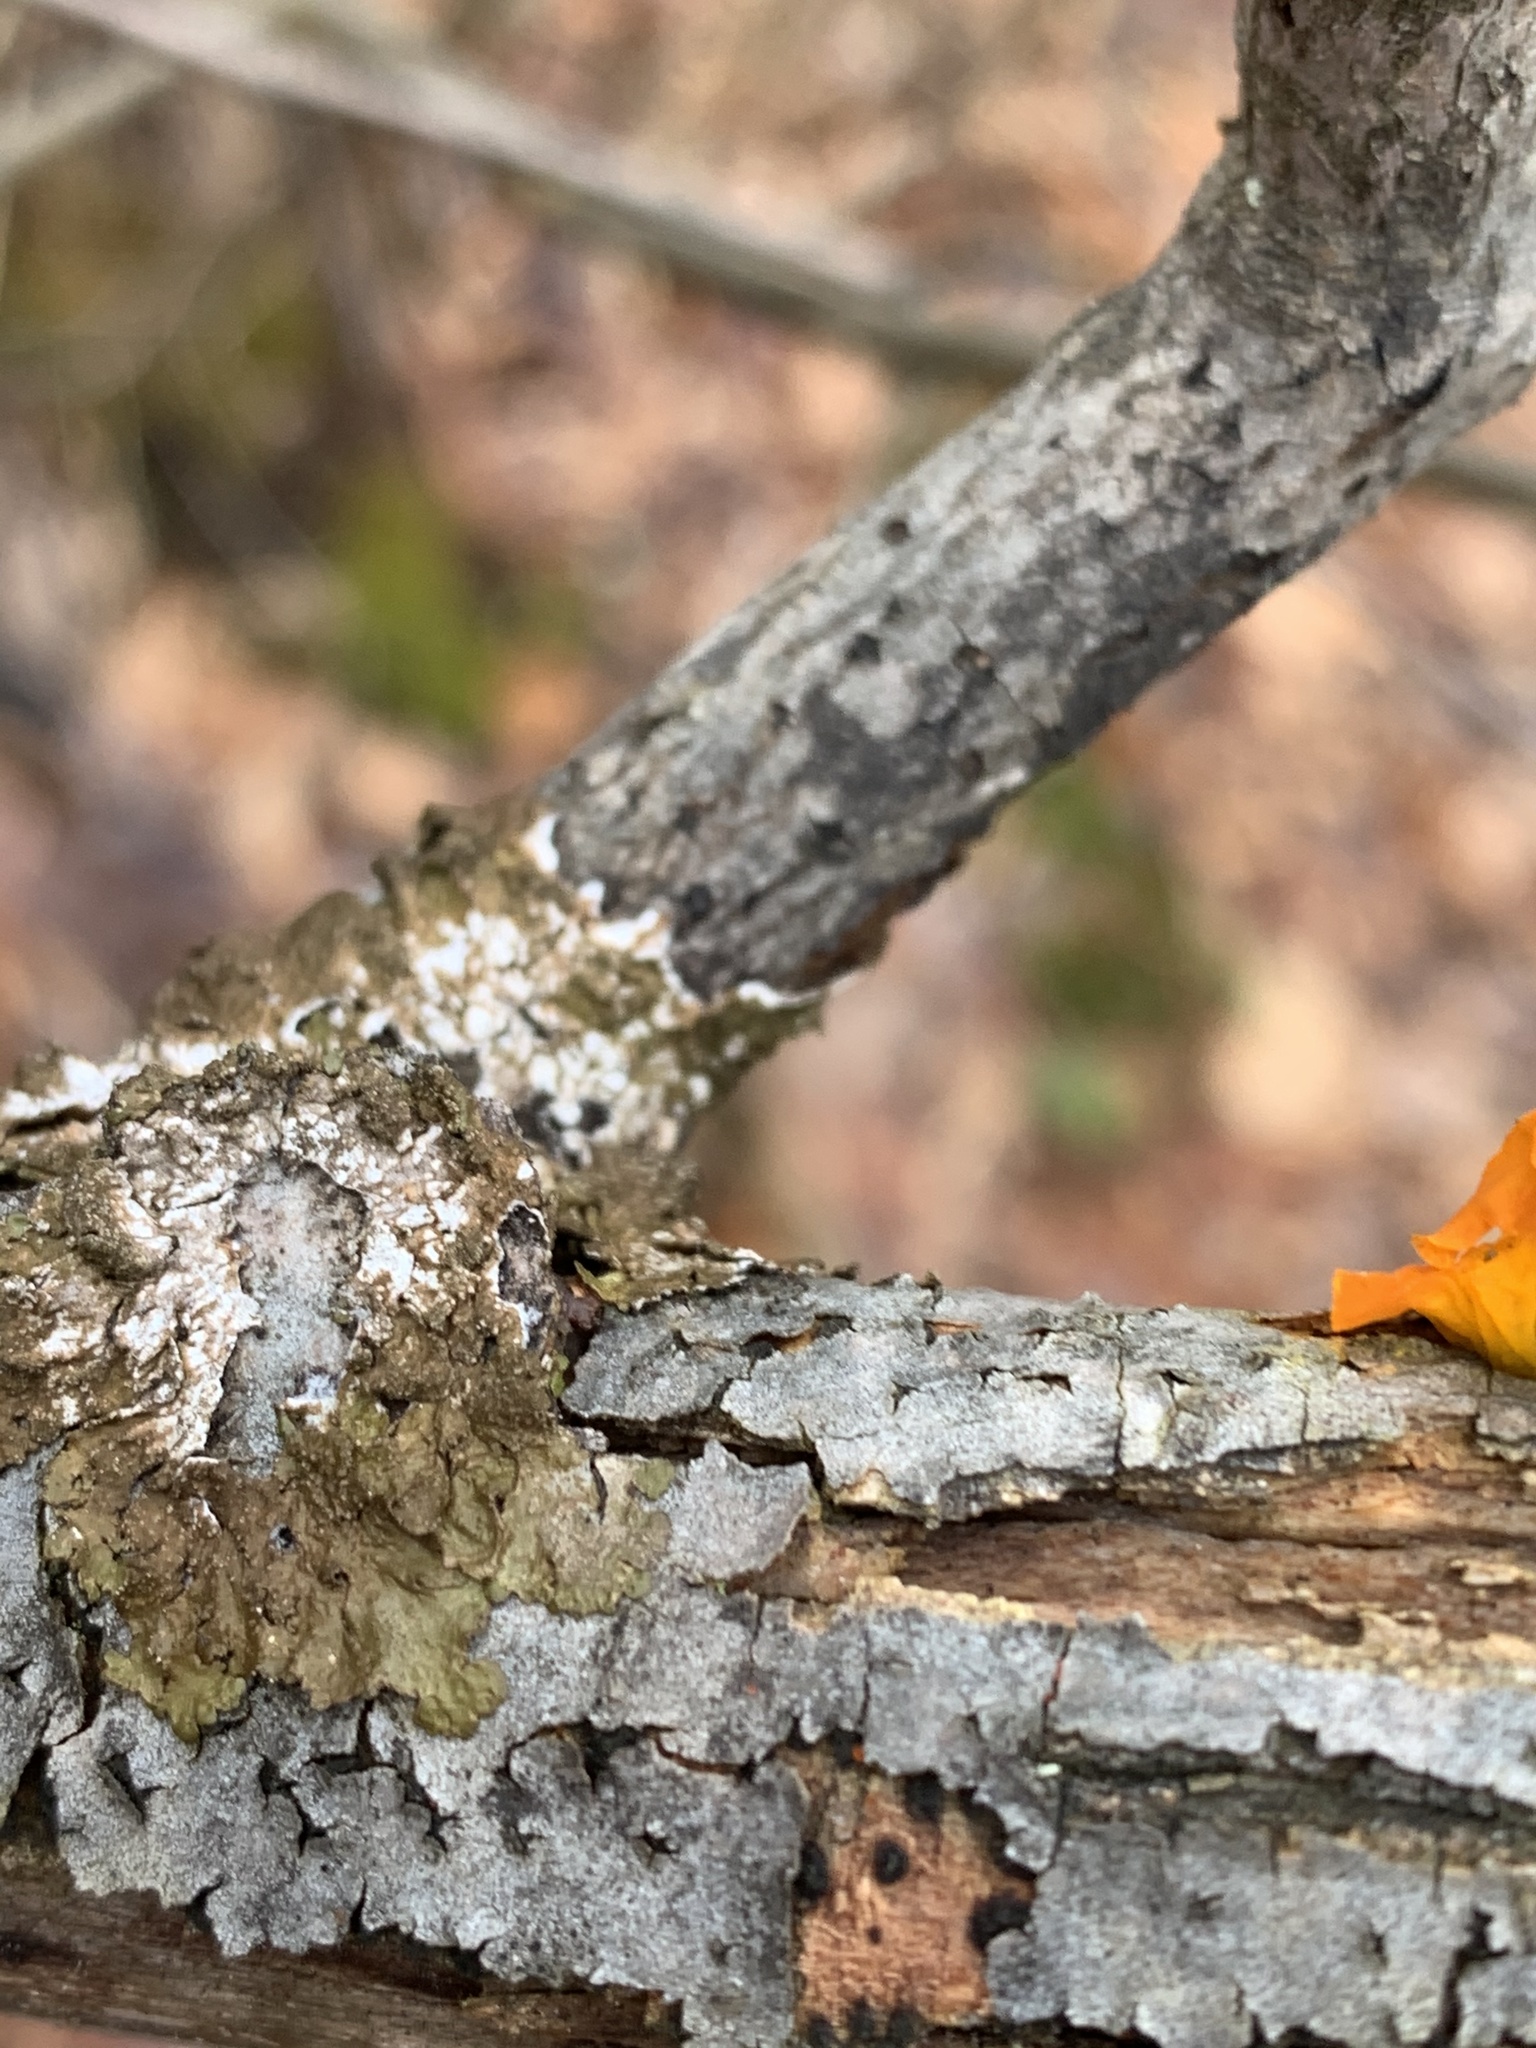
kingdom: Fungi
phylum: Basidiomycota
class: Tremellomycetes
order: Tremellales
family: Tremellaceae
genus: Tremella
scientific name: Tremella mesenterica
